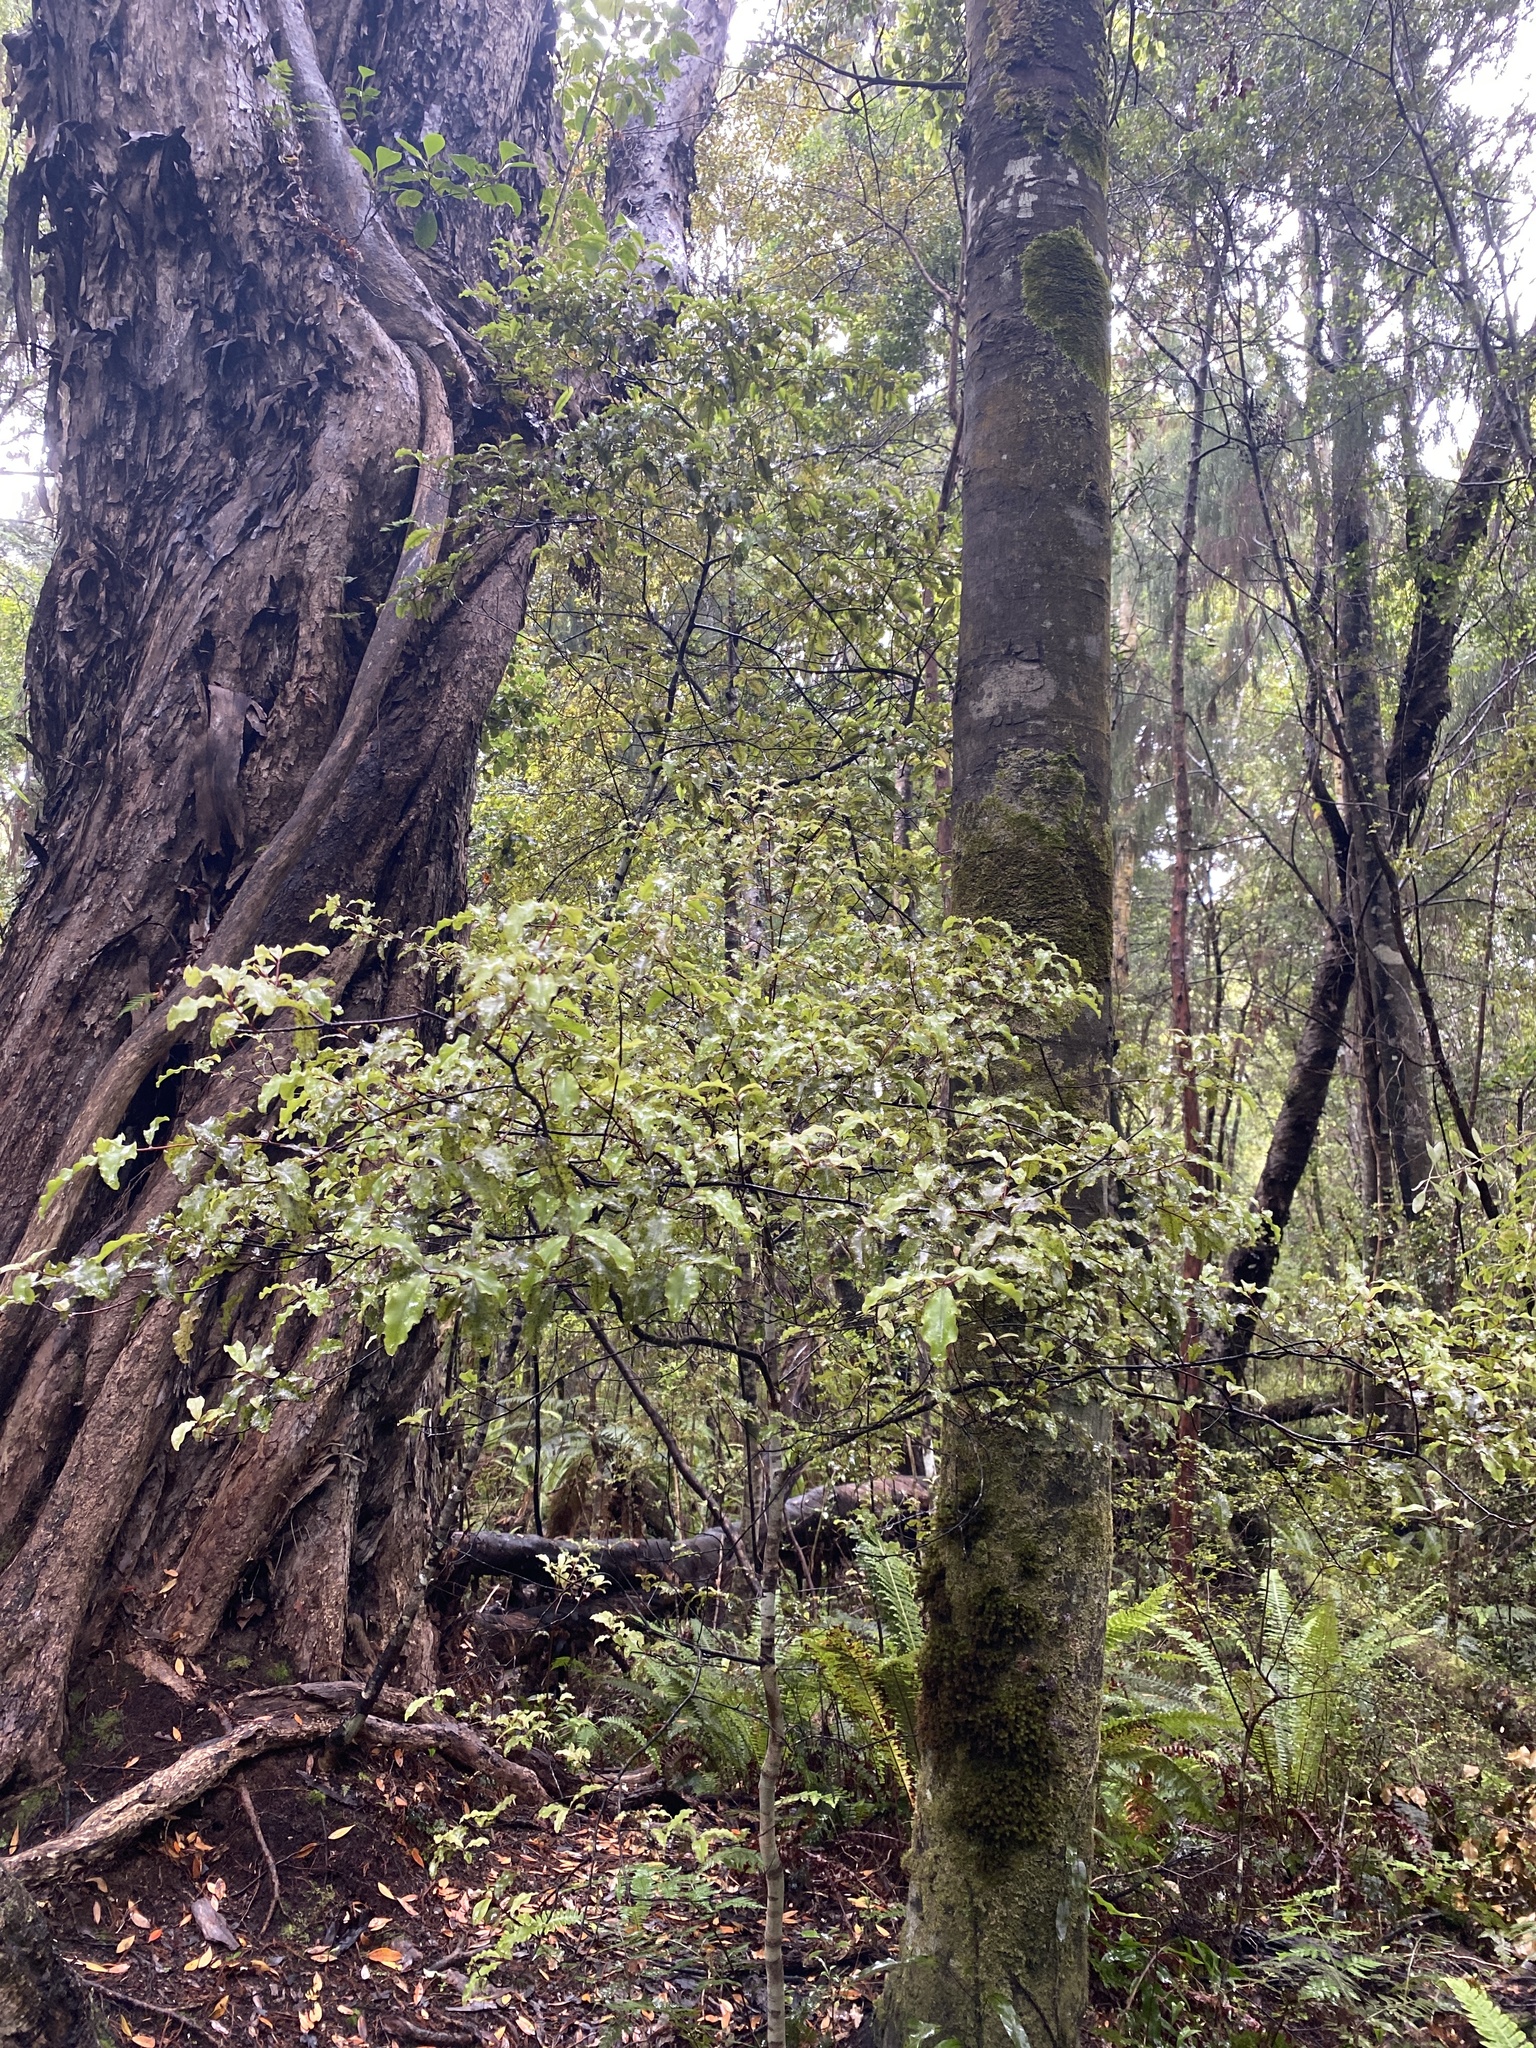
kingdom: Plantae
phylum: Tracheophyta
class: Magnoliopsida
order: Ericales
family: Primulaceae
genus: Myrsine
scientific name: Myrsine australis
